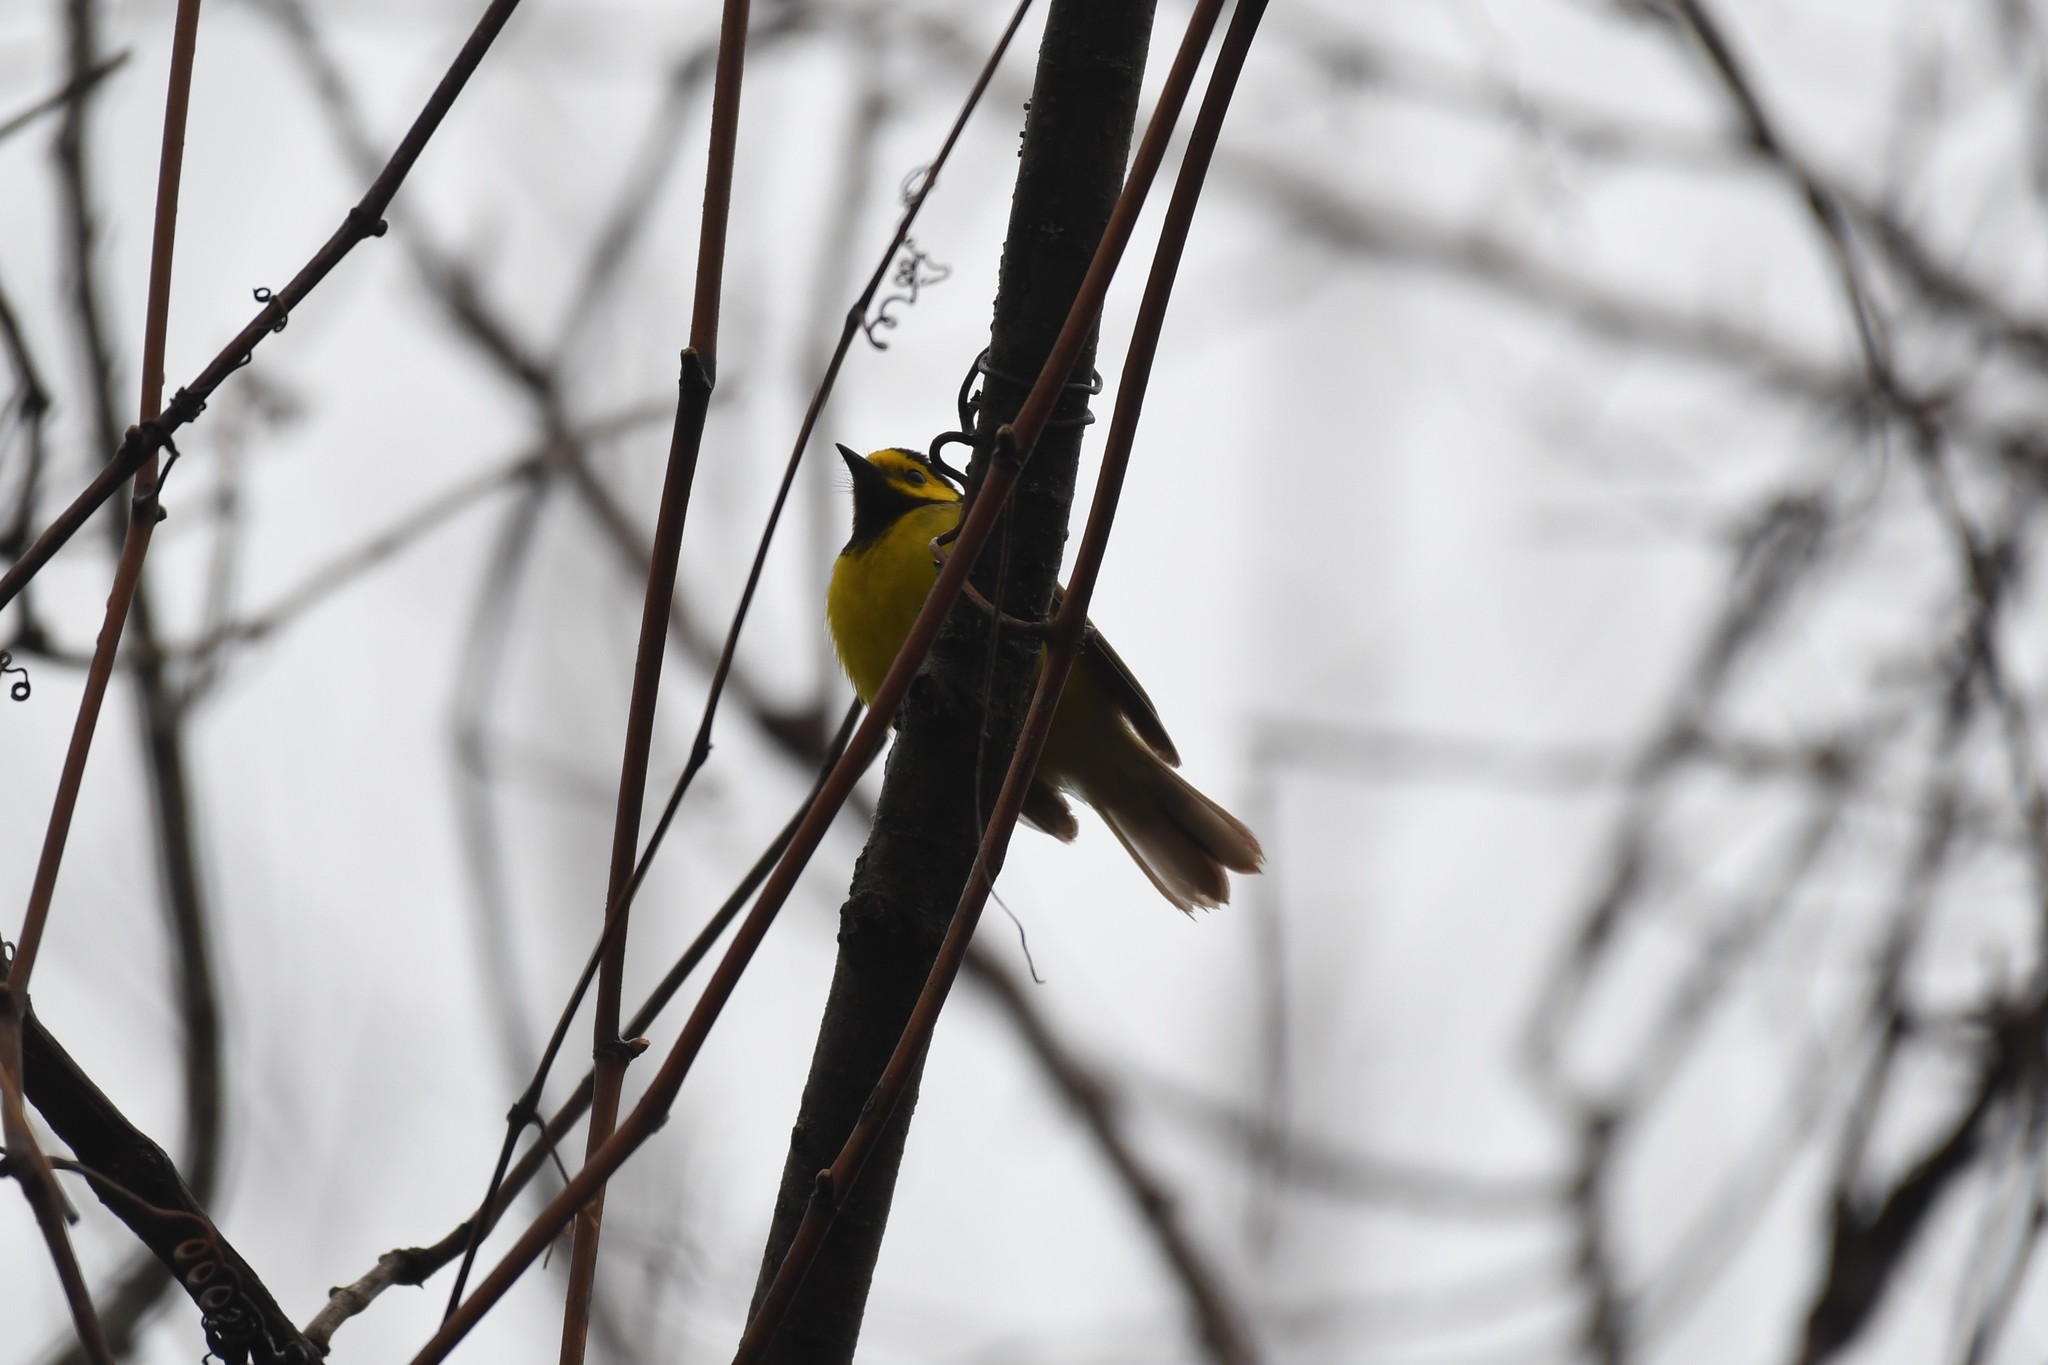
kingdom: Animalia
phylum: Chordata
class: Aves
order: Passeriformes
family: Parulidae
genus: Setophaga
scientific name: Setophaga citrina
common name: Hooded warbler
